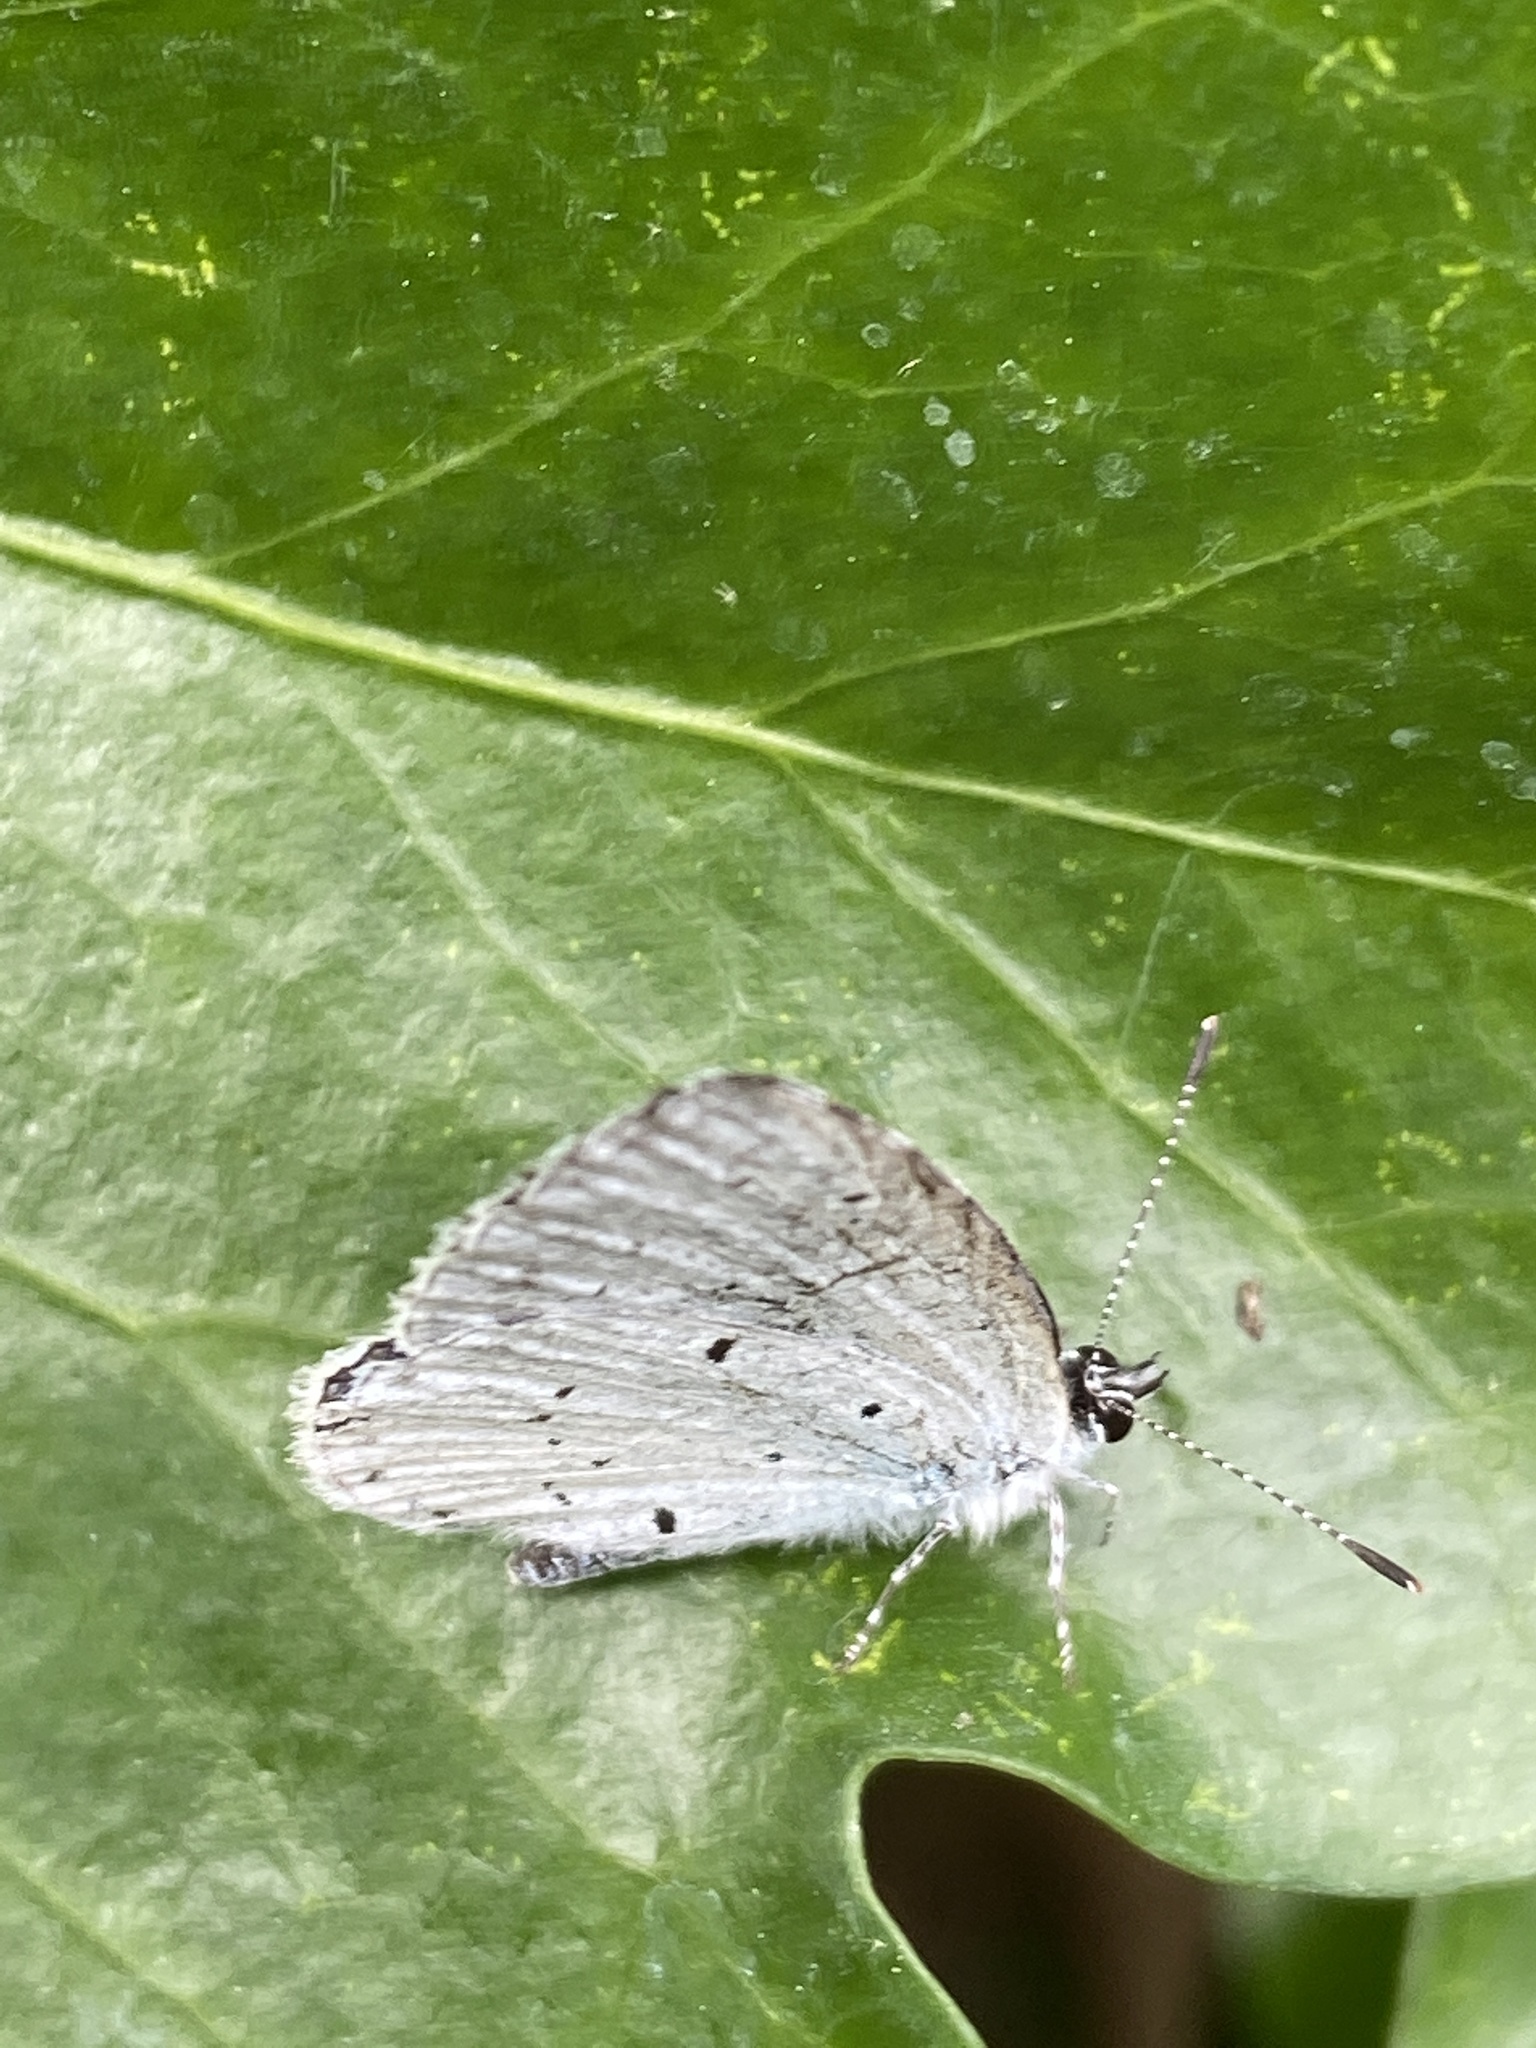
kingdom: Animalia
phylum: Arthropoda
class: Insecta
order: Lepidoptera
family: Lycaenidae
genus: Celastrina
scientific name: Celastrina argiolus
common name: Holly blue
